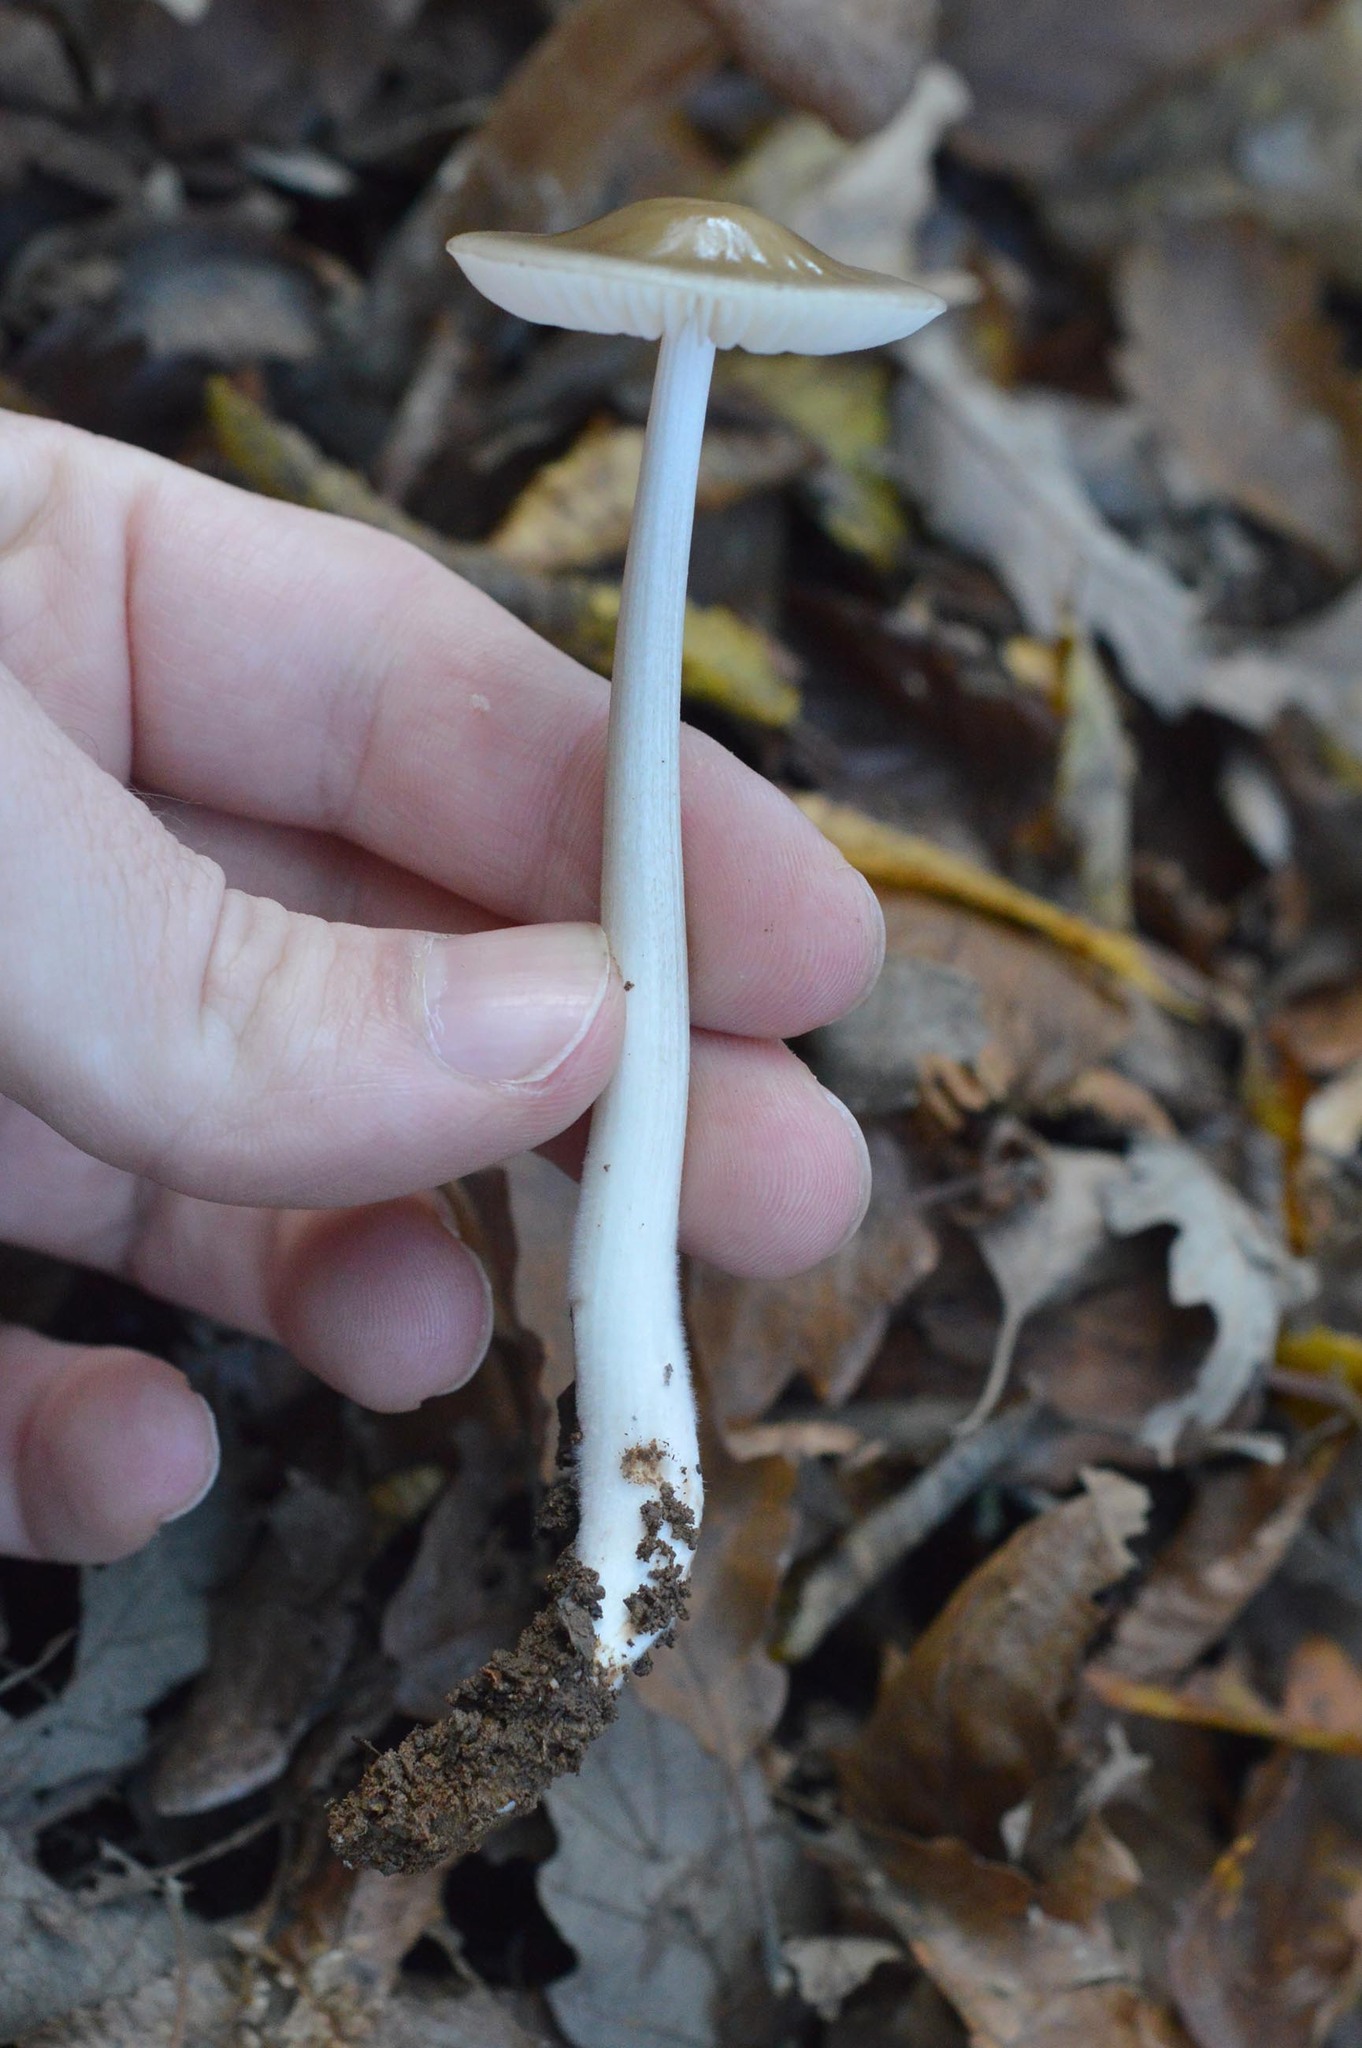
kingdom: Fungi
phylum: Basidiomycota
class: Agaricomycetes
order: Agaricales
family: Physalacriaceae
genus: Hymenopellis
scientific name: Hymenopellis radicata
